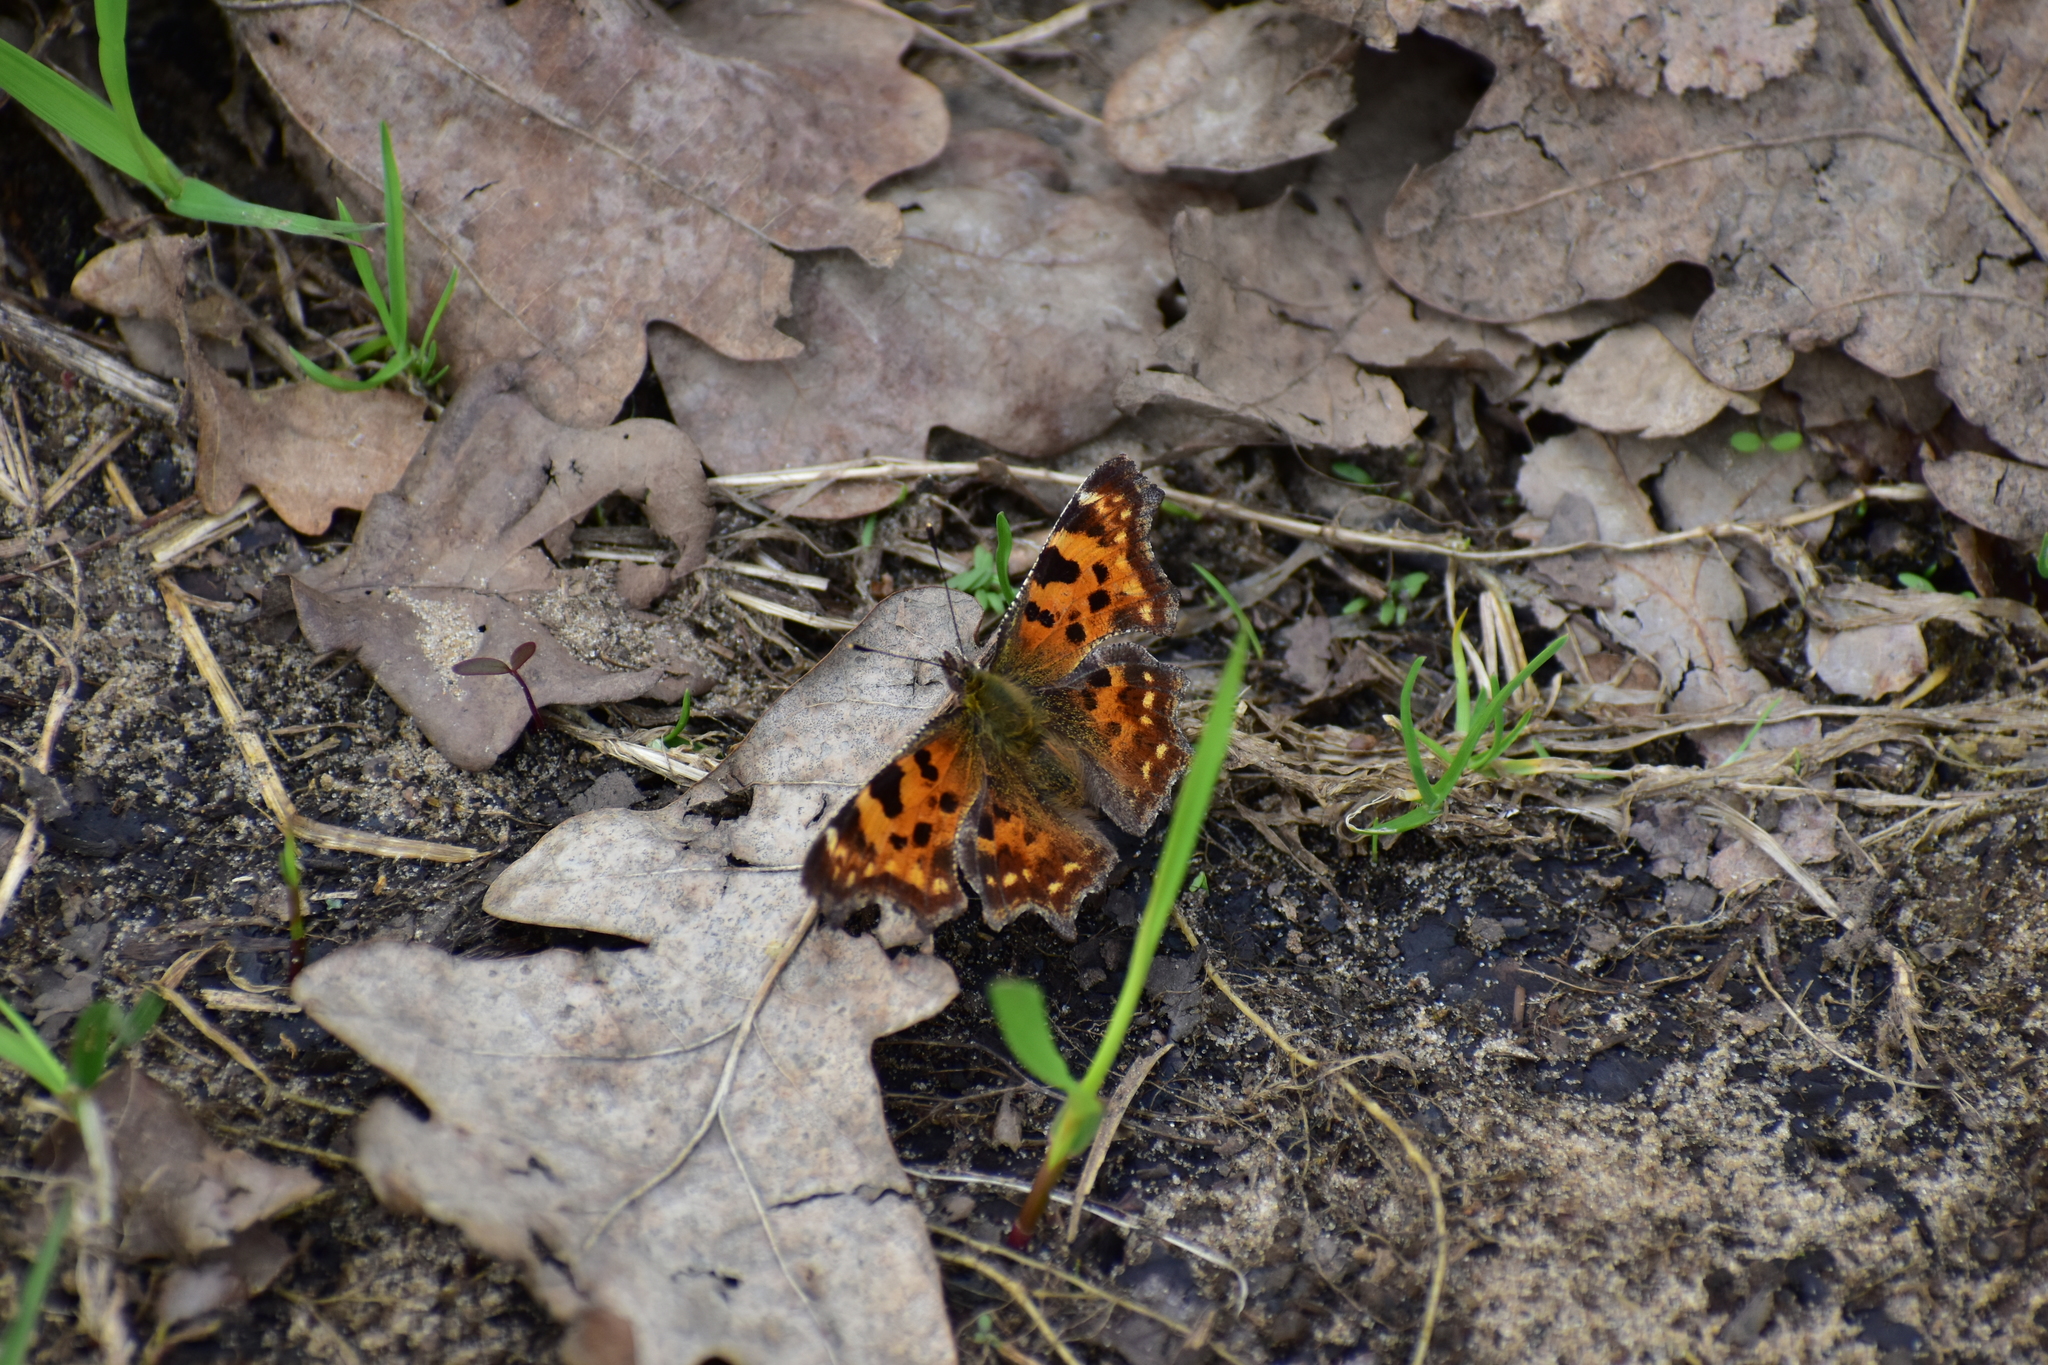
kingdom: Animalia
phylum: Arthropoda
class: Insecta
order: Lepidoptera
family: Nymphalidae
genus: Polygonia
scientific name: Polygonia c-album
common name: Comma
